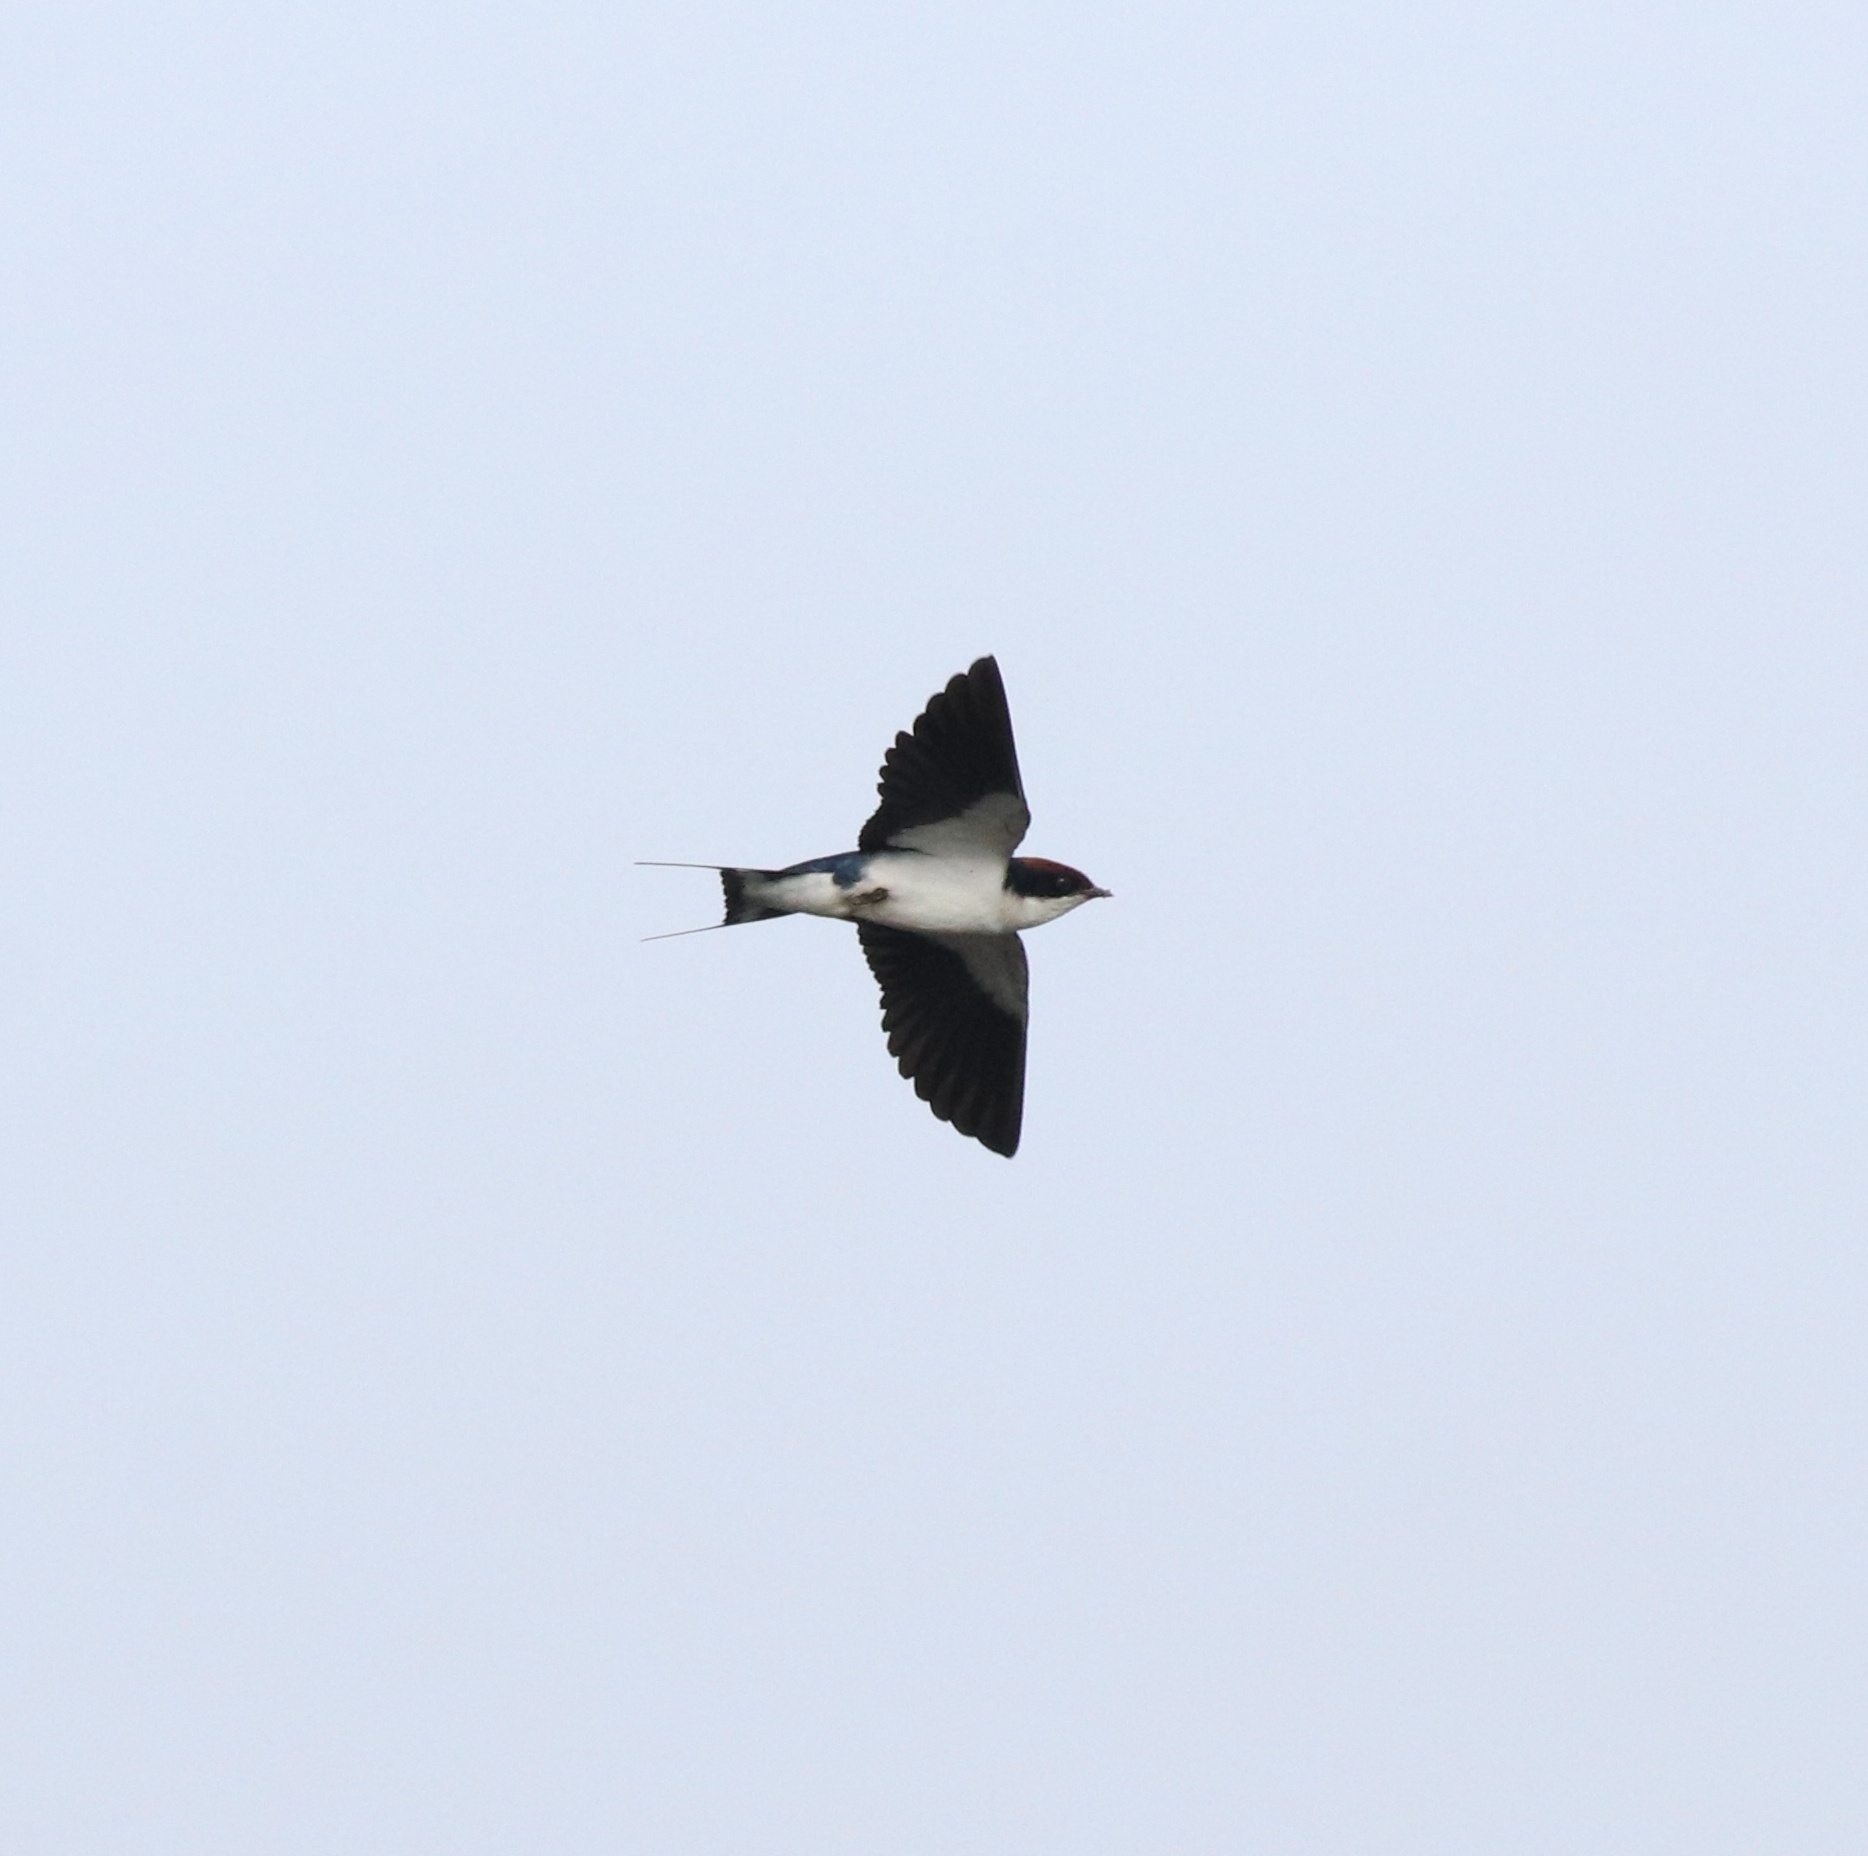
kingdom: Animalia
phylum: Chordata
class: Aves
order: Passeriformes
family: Hirundinidae
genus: Hirundo
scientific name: Hirundo smithii
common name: Wire-tailed swallow
